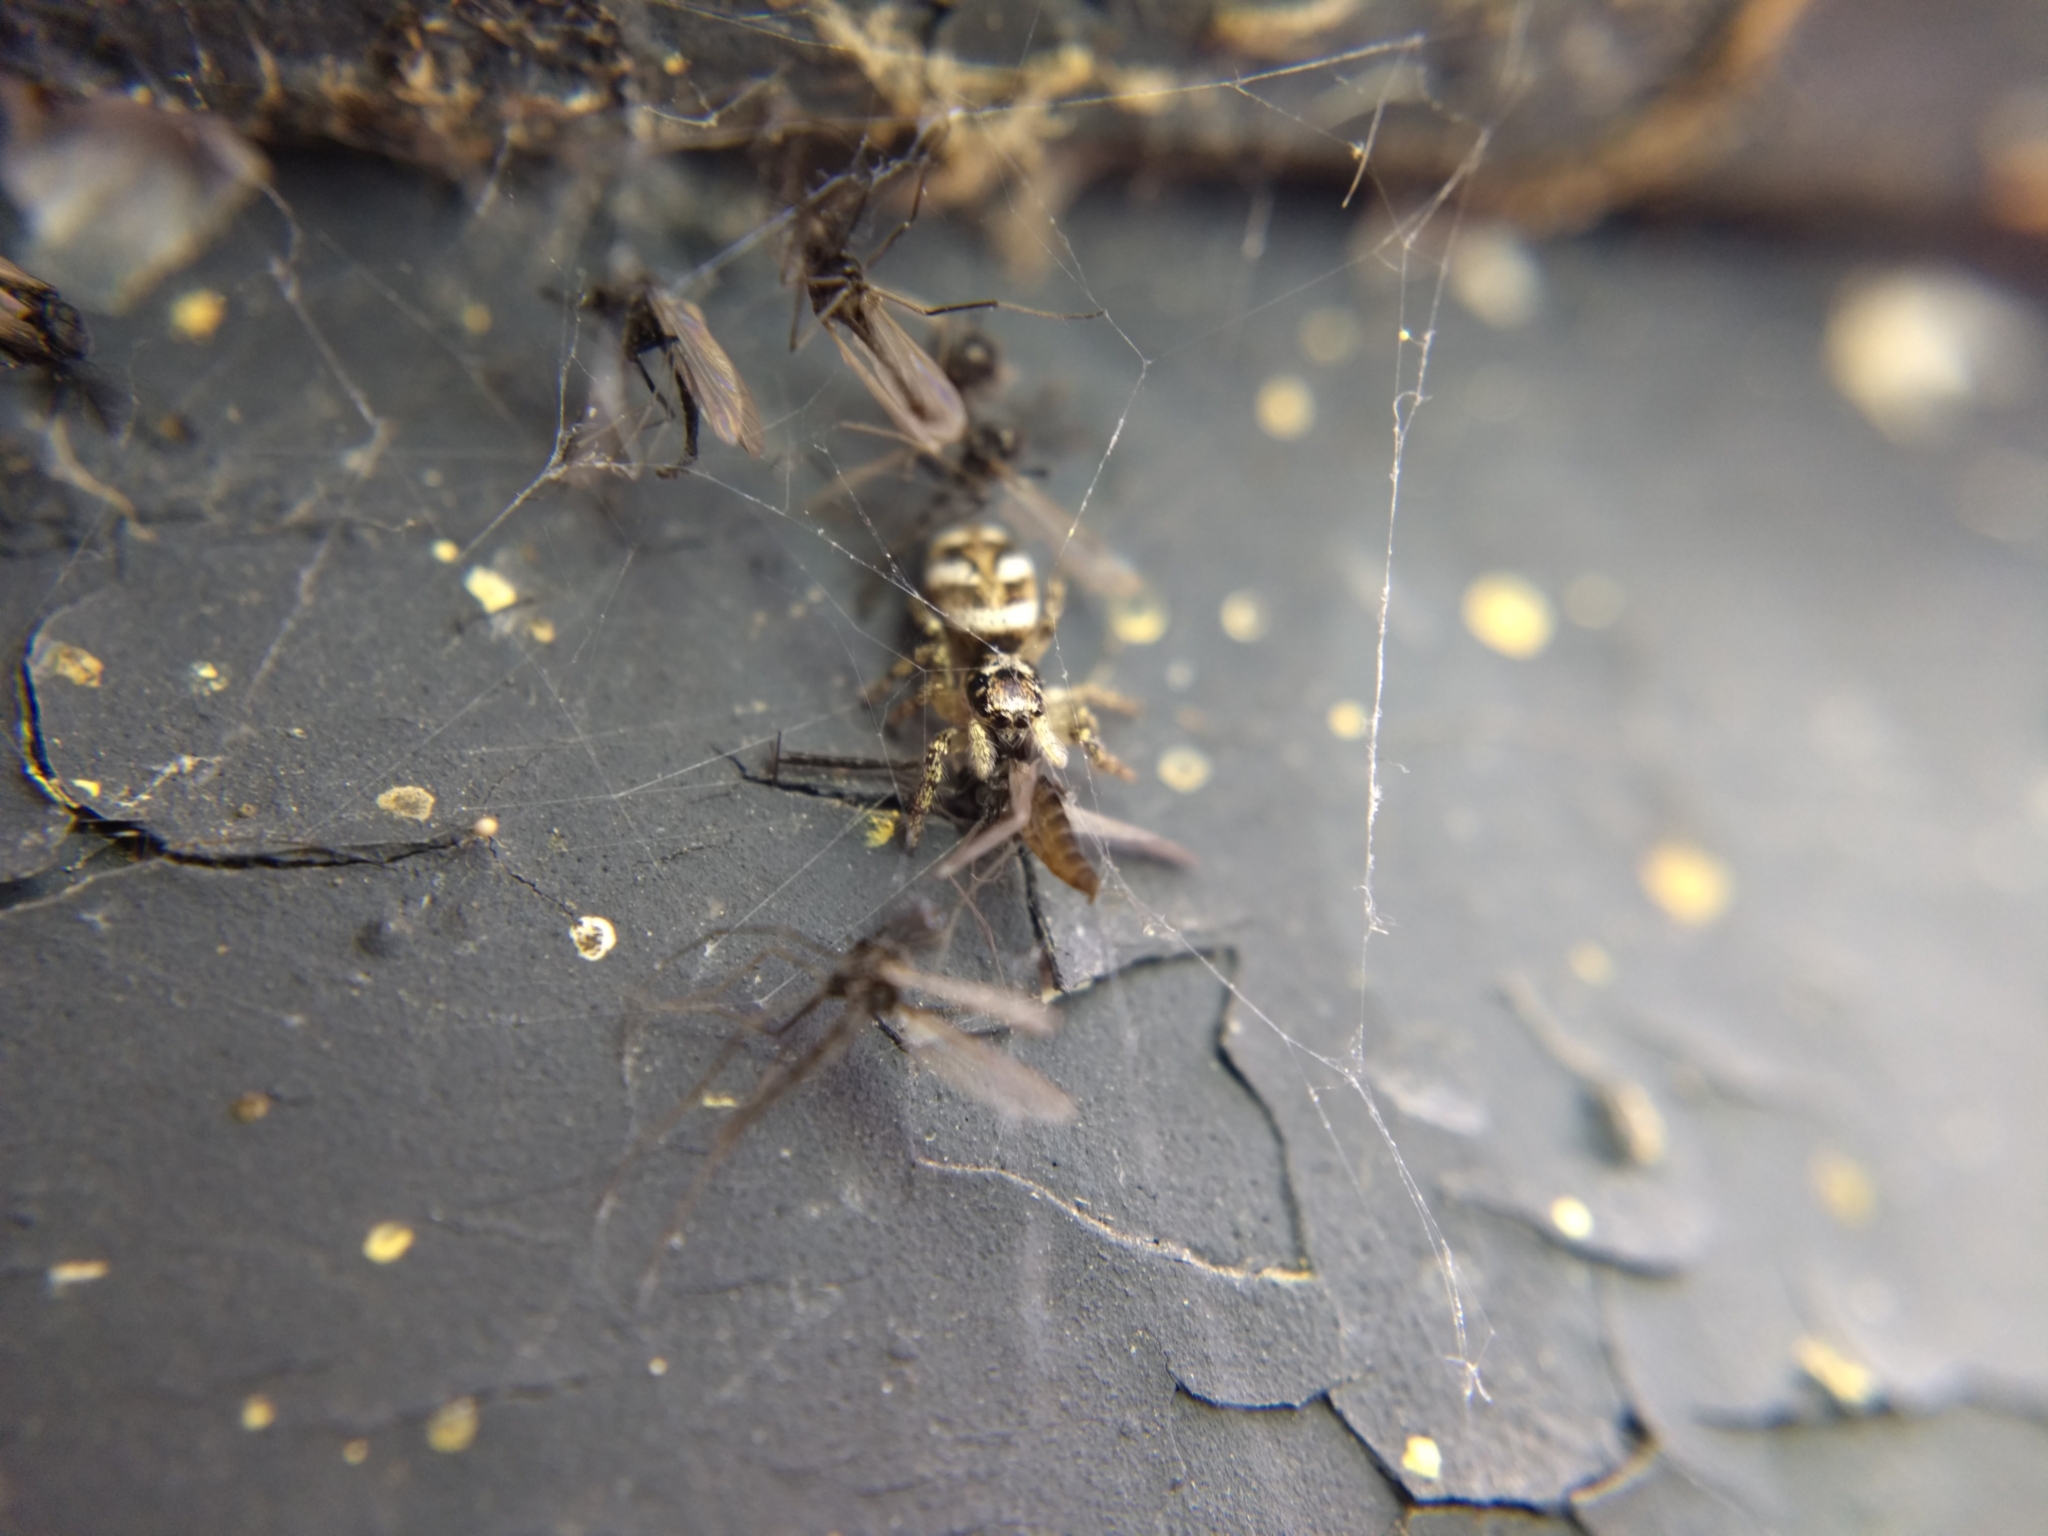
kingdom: Animalia
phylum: Arthropoda
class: Arachnida
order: Araneae
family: Salticidae
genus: Salticus
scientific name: Salticus scenicus
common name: Zebra jumper
